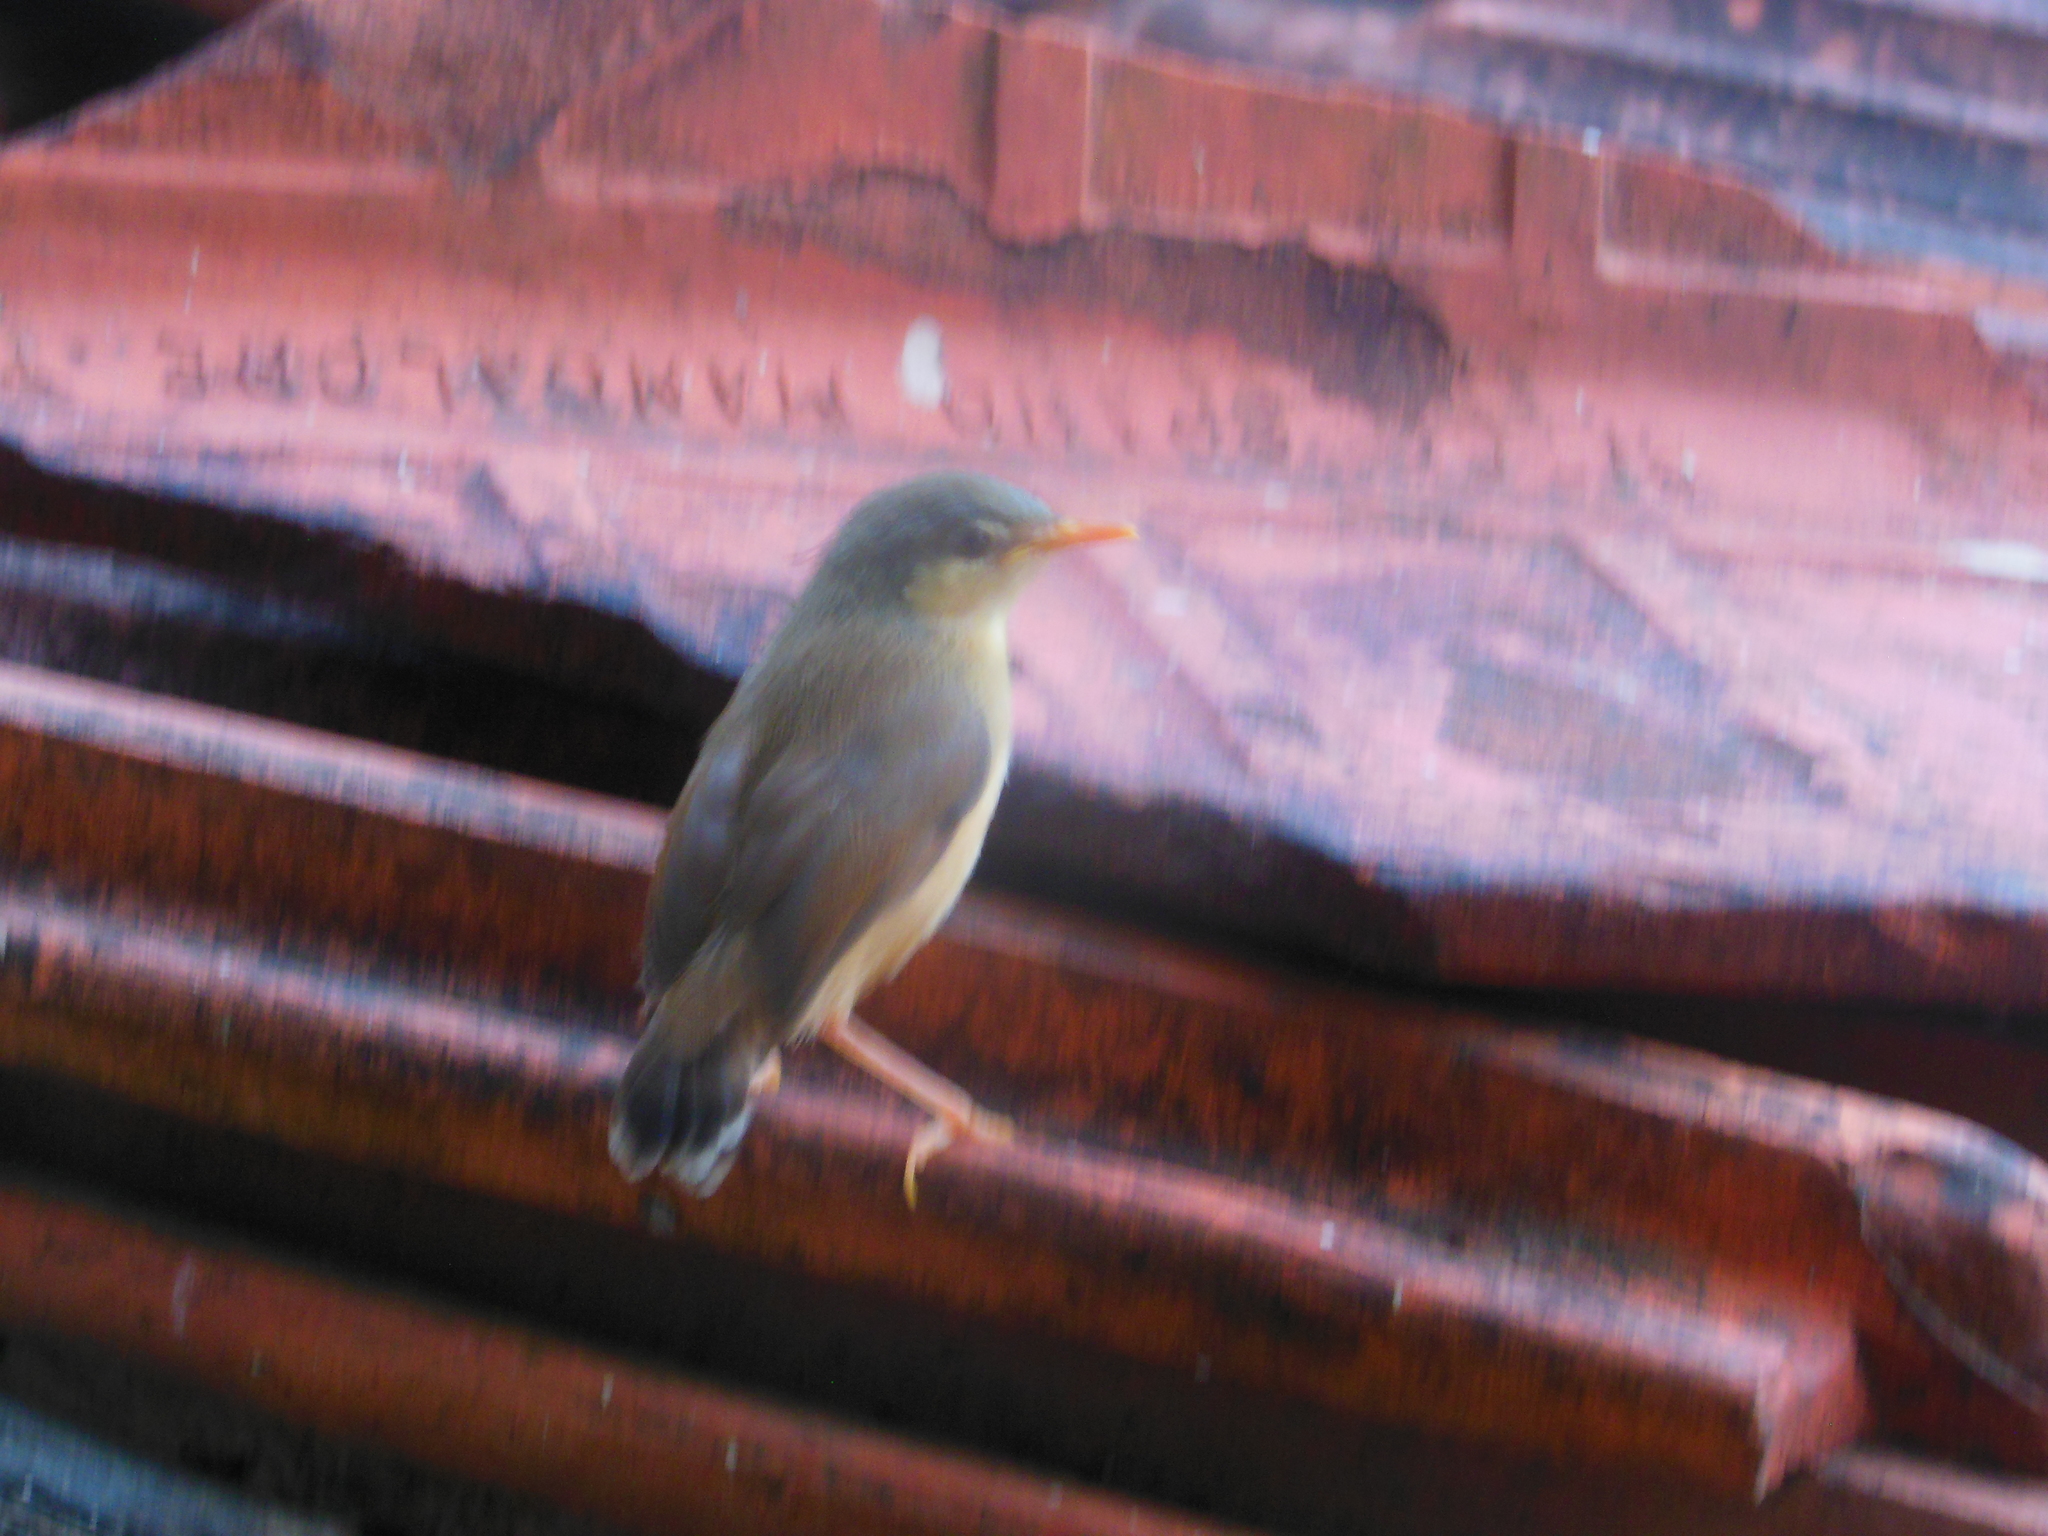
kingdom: Animalia
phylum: Chordata
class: Aves
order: Passeriformes
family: Cisticolidae
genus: Prinia
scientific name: Prinia socialis
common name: Ashy prinia
